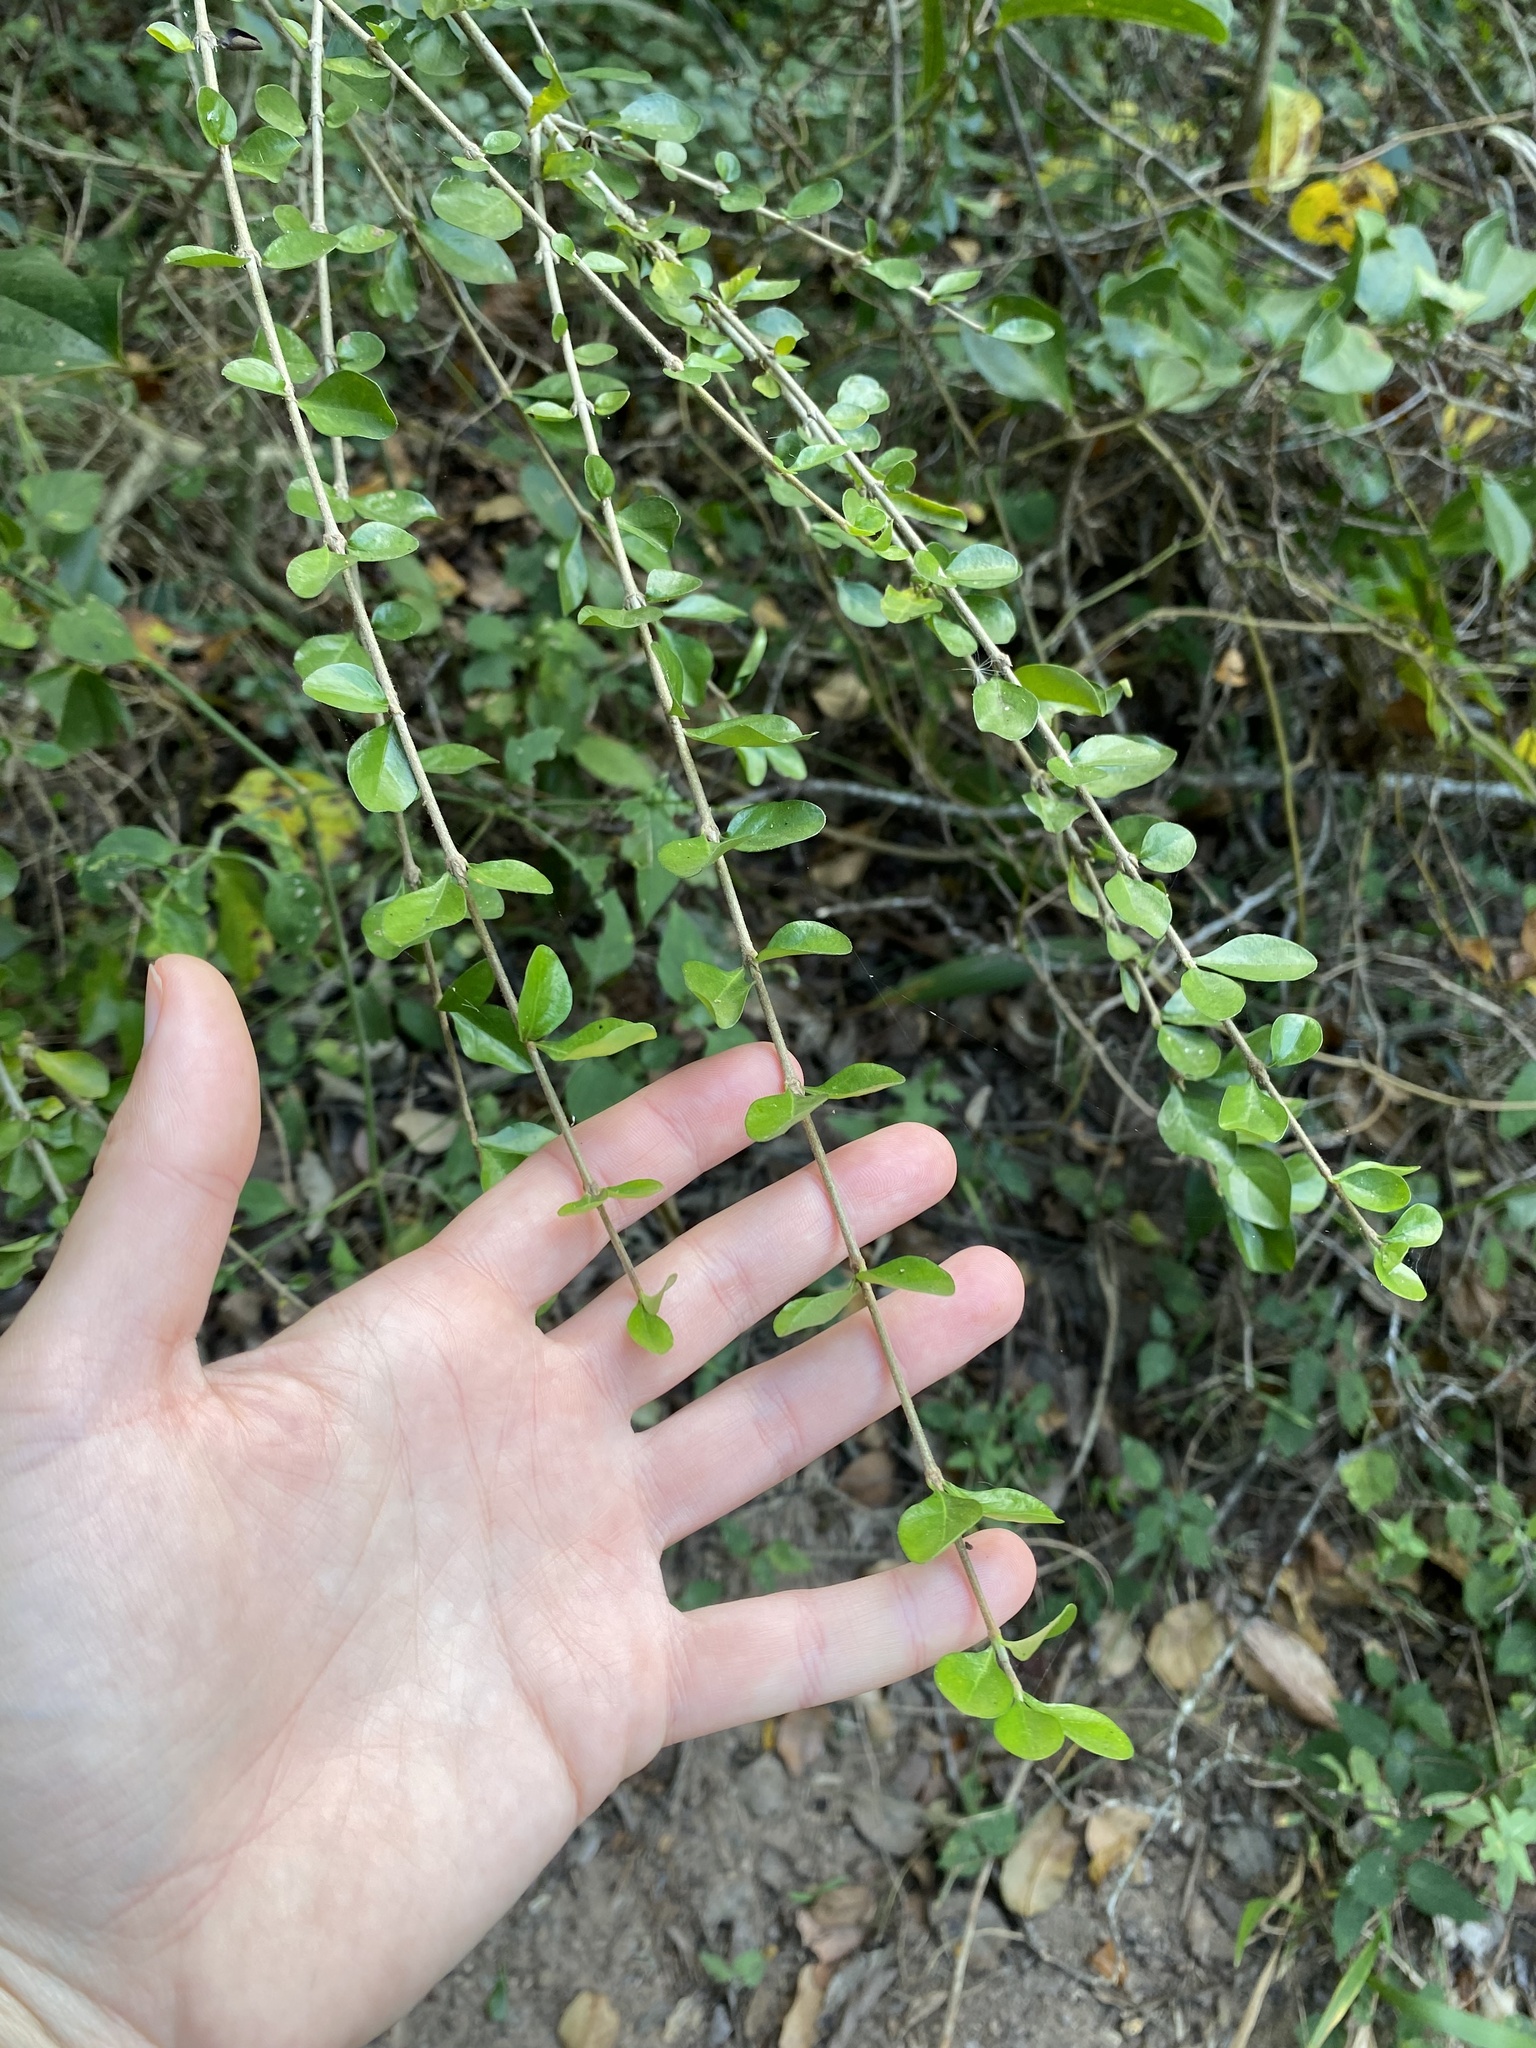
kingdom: Plantae
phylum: Tracheophyta
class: Magnoliopsida
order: Gentianales
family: Rubiaceae
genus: Coddia
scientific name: Coddia rudis
